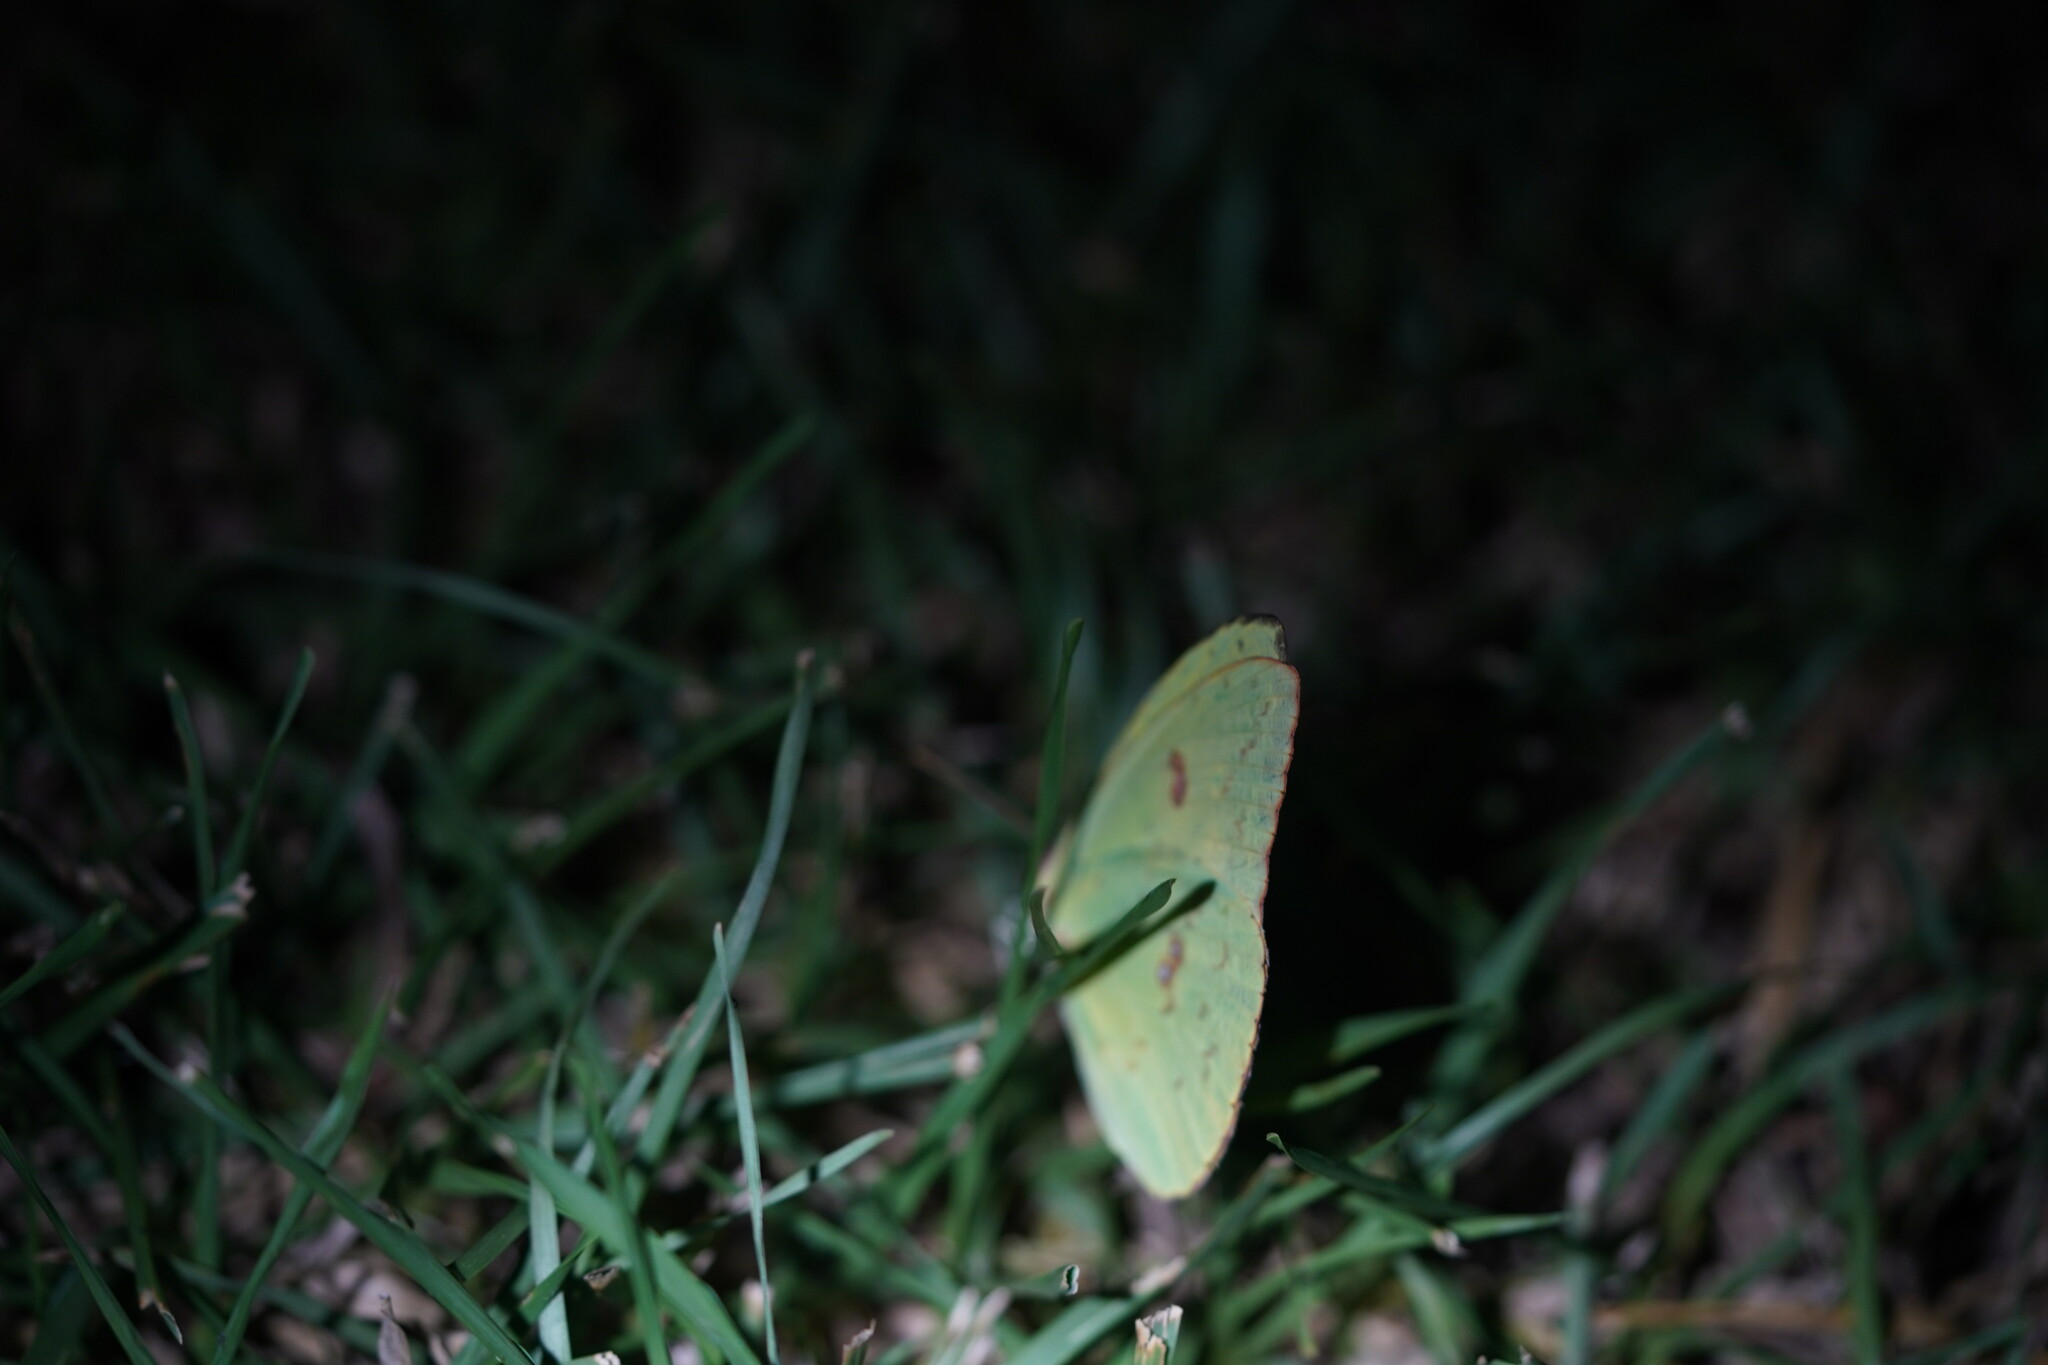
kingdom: Animalia
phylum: Arthropoda
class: Insecta
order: Lepidoptera
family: Pieridae
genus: Phoebis
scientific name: Phoebis sennae
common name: Cloudless sulphur
